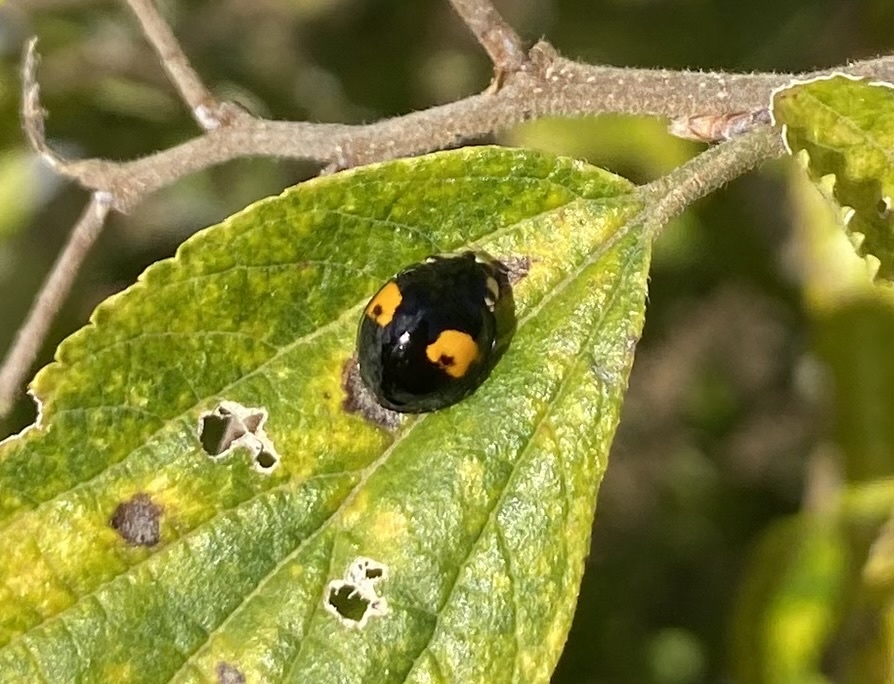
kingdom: Animalia
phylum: Arthropoda
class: Insecta
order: Coleoptera
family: Coccinellidae
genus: Harmonia
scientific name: Harmonia axyridis
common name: Harlequin ladybird
